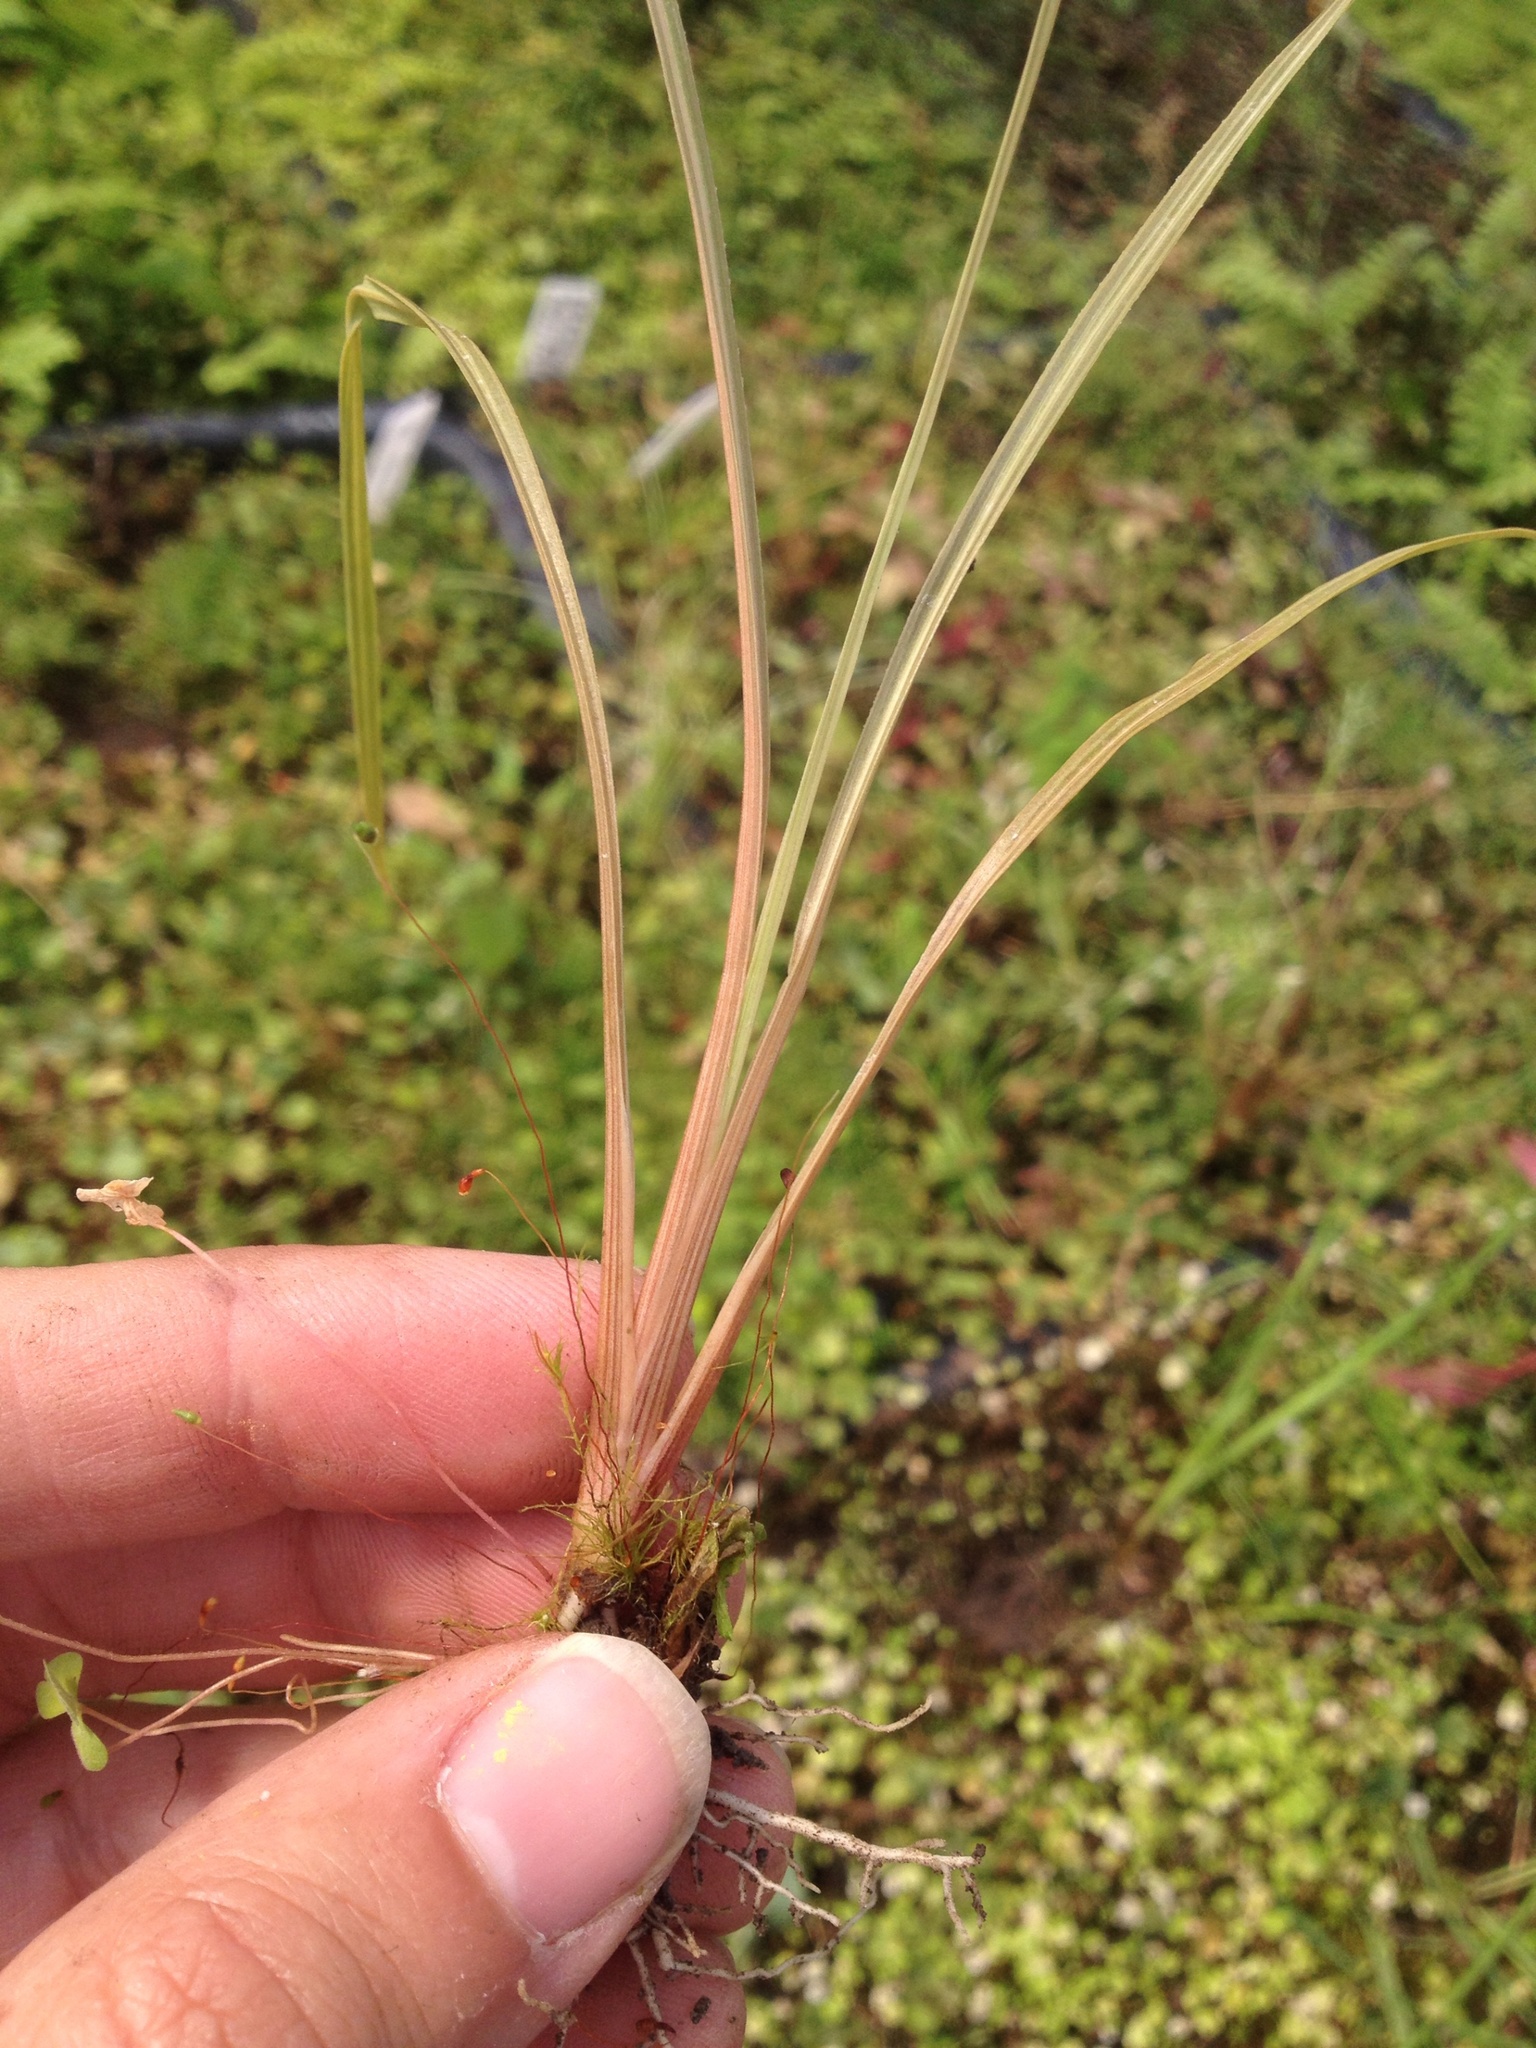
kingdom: Plantae
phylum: Tracheophyta
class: Liliopsida
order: Asparagales
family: Asparagaceae
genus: Cordyline
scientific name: Cordyline australis
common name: Cabbage-palm
